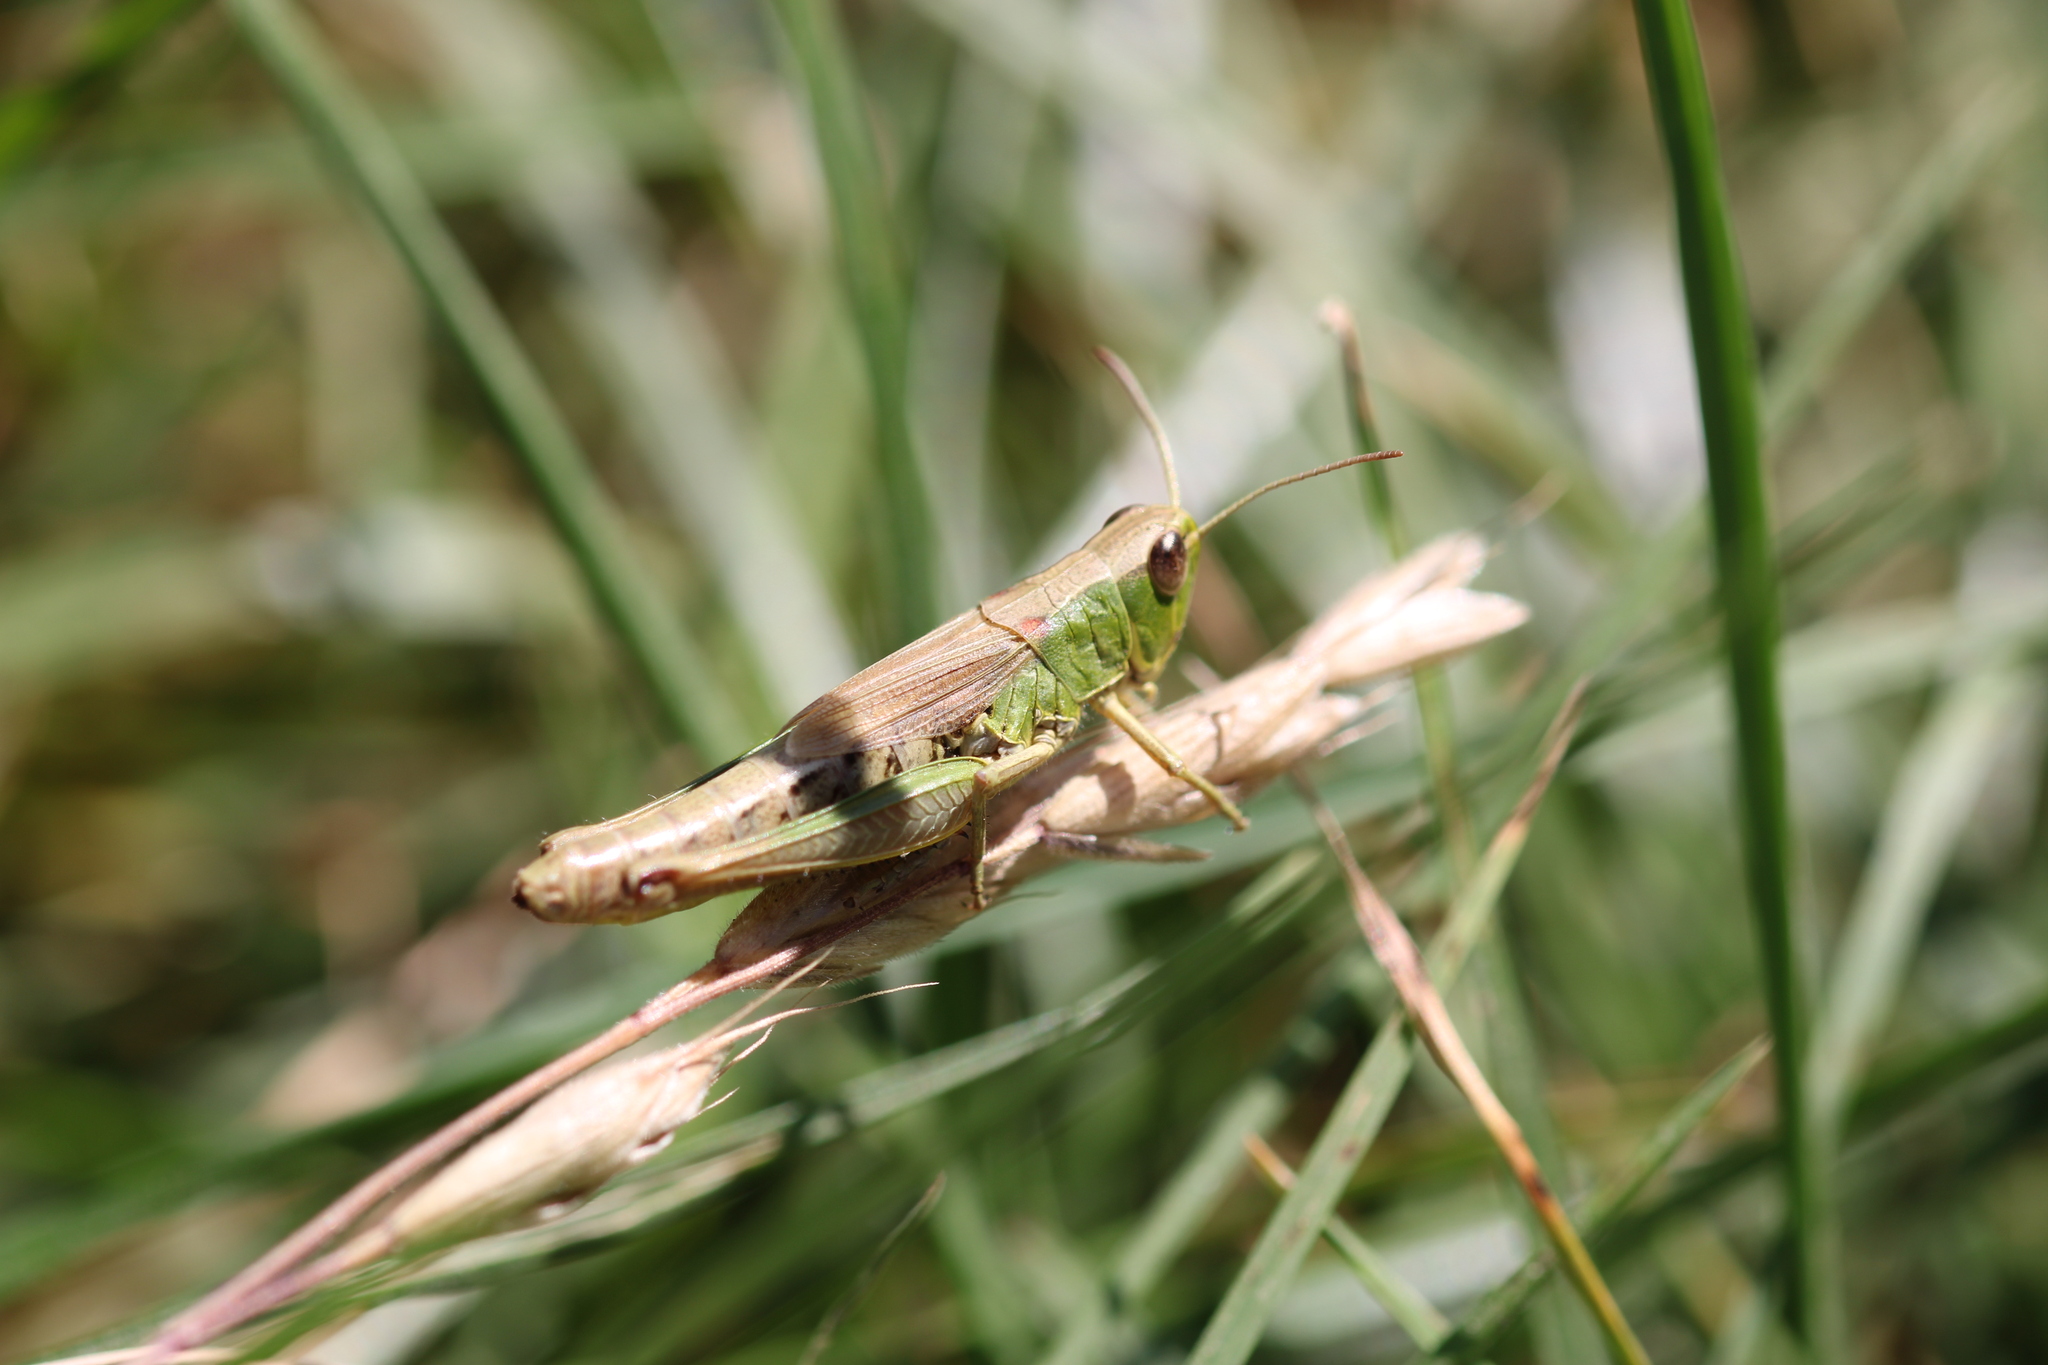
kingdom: Animalia
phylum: Arthropoda
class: Insecta
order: Orthoptera
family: Acrididae
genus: Pseudochorthippus
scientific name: Pseudochorthippus parallelus
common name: Meadow grasshopper
